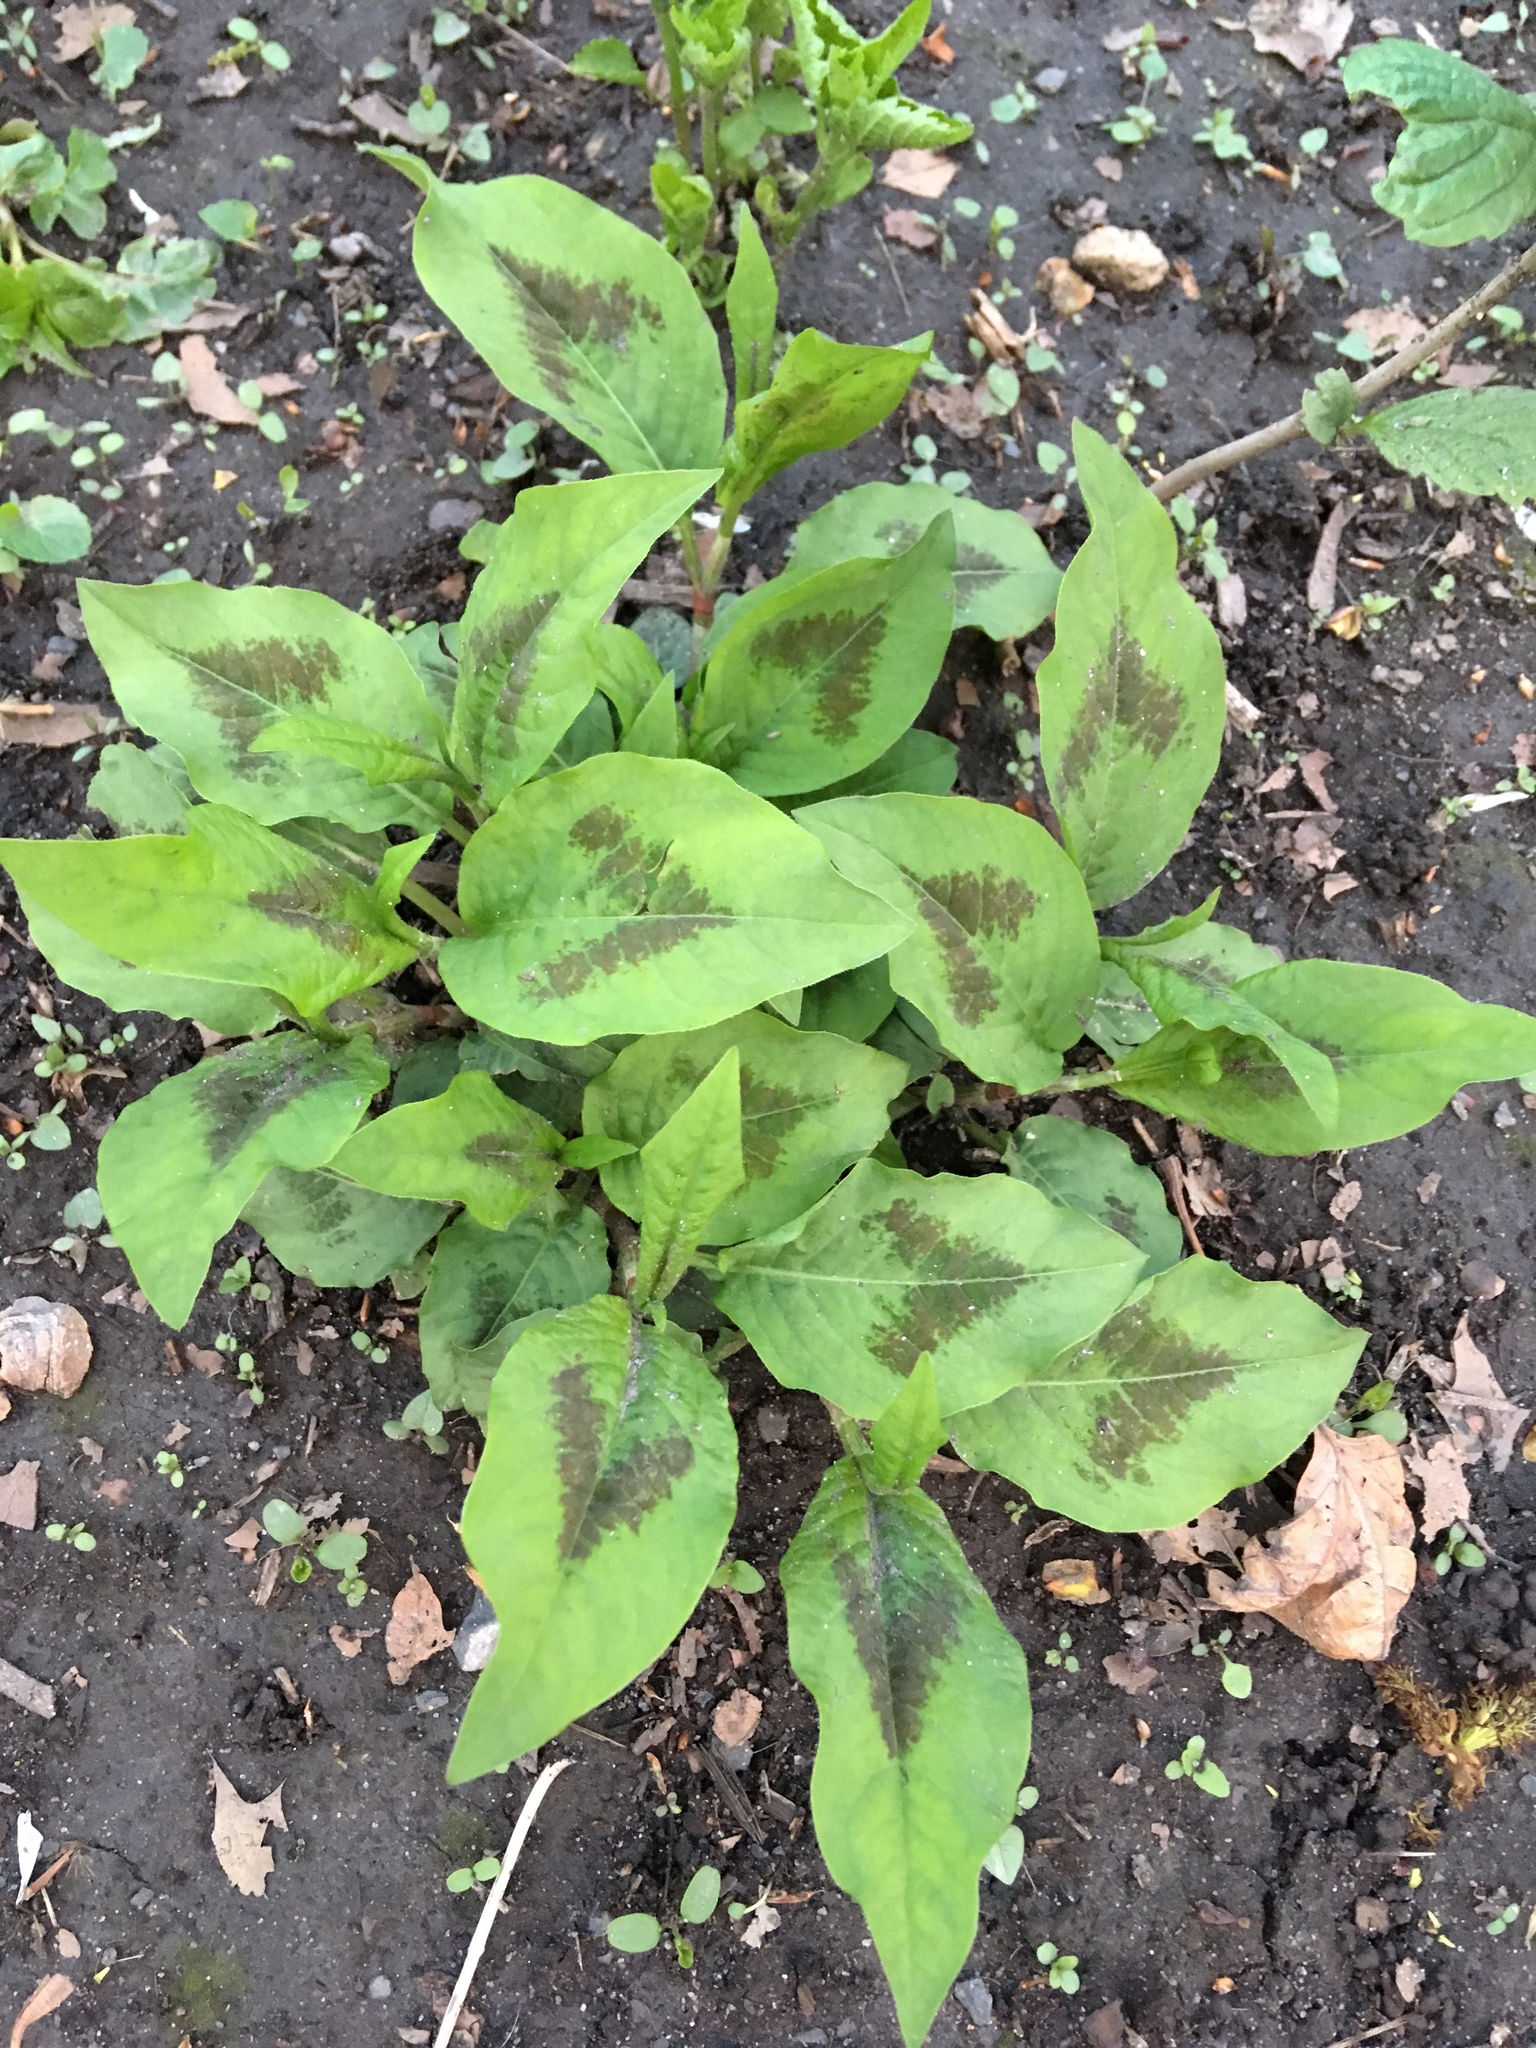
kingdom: Plantae
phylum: Tracheophyta
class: Magnoliopsida
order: Caryophyllales
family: Polygonaceae
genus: Persicaria
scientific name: Persicaria virginiana
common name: Jumpseed
